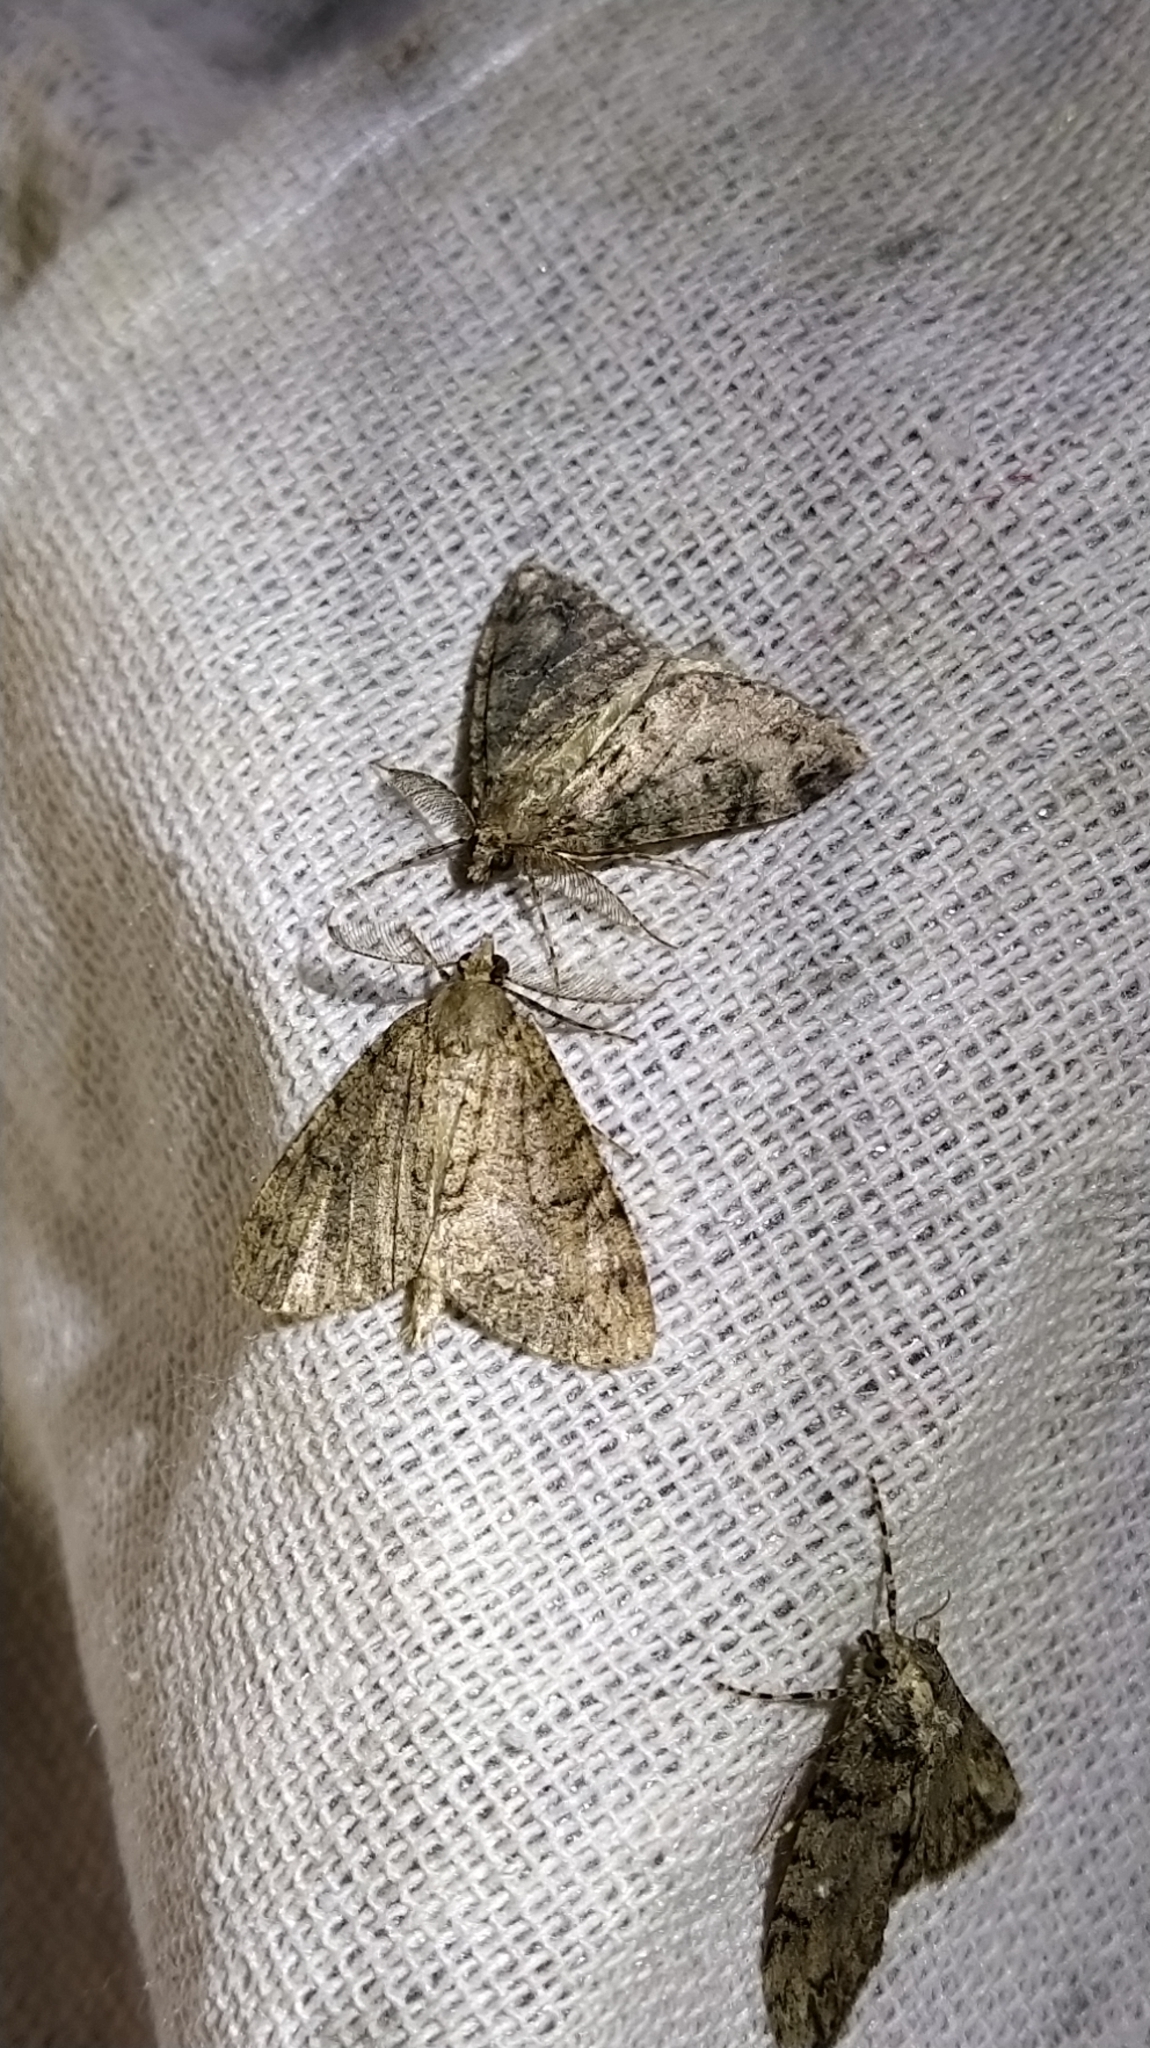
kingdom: Animalia
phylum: Arthropoda
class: Insecta
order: Lepidoptera
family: Geometridae
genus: Pseudocoremia
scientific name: Pseudocoremia suavis
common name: Common forest looper
